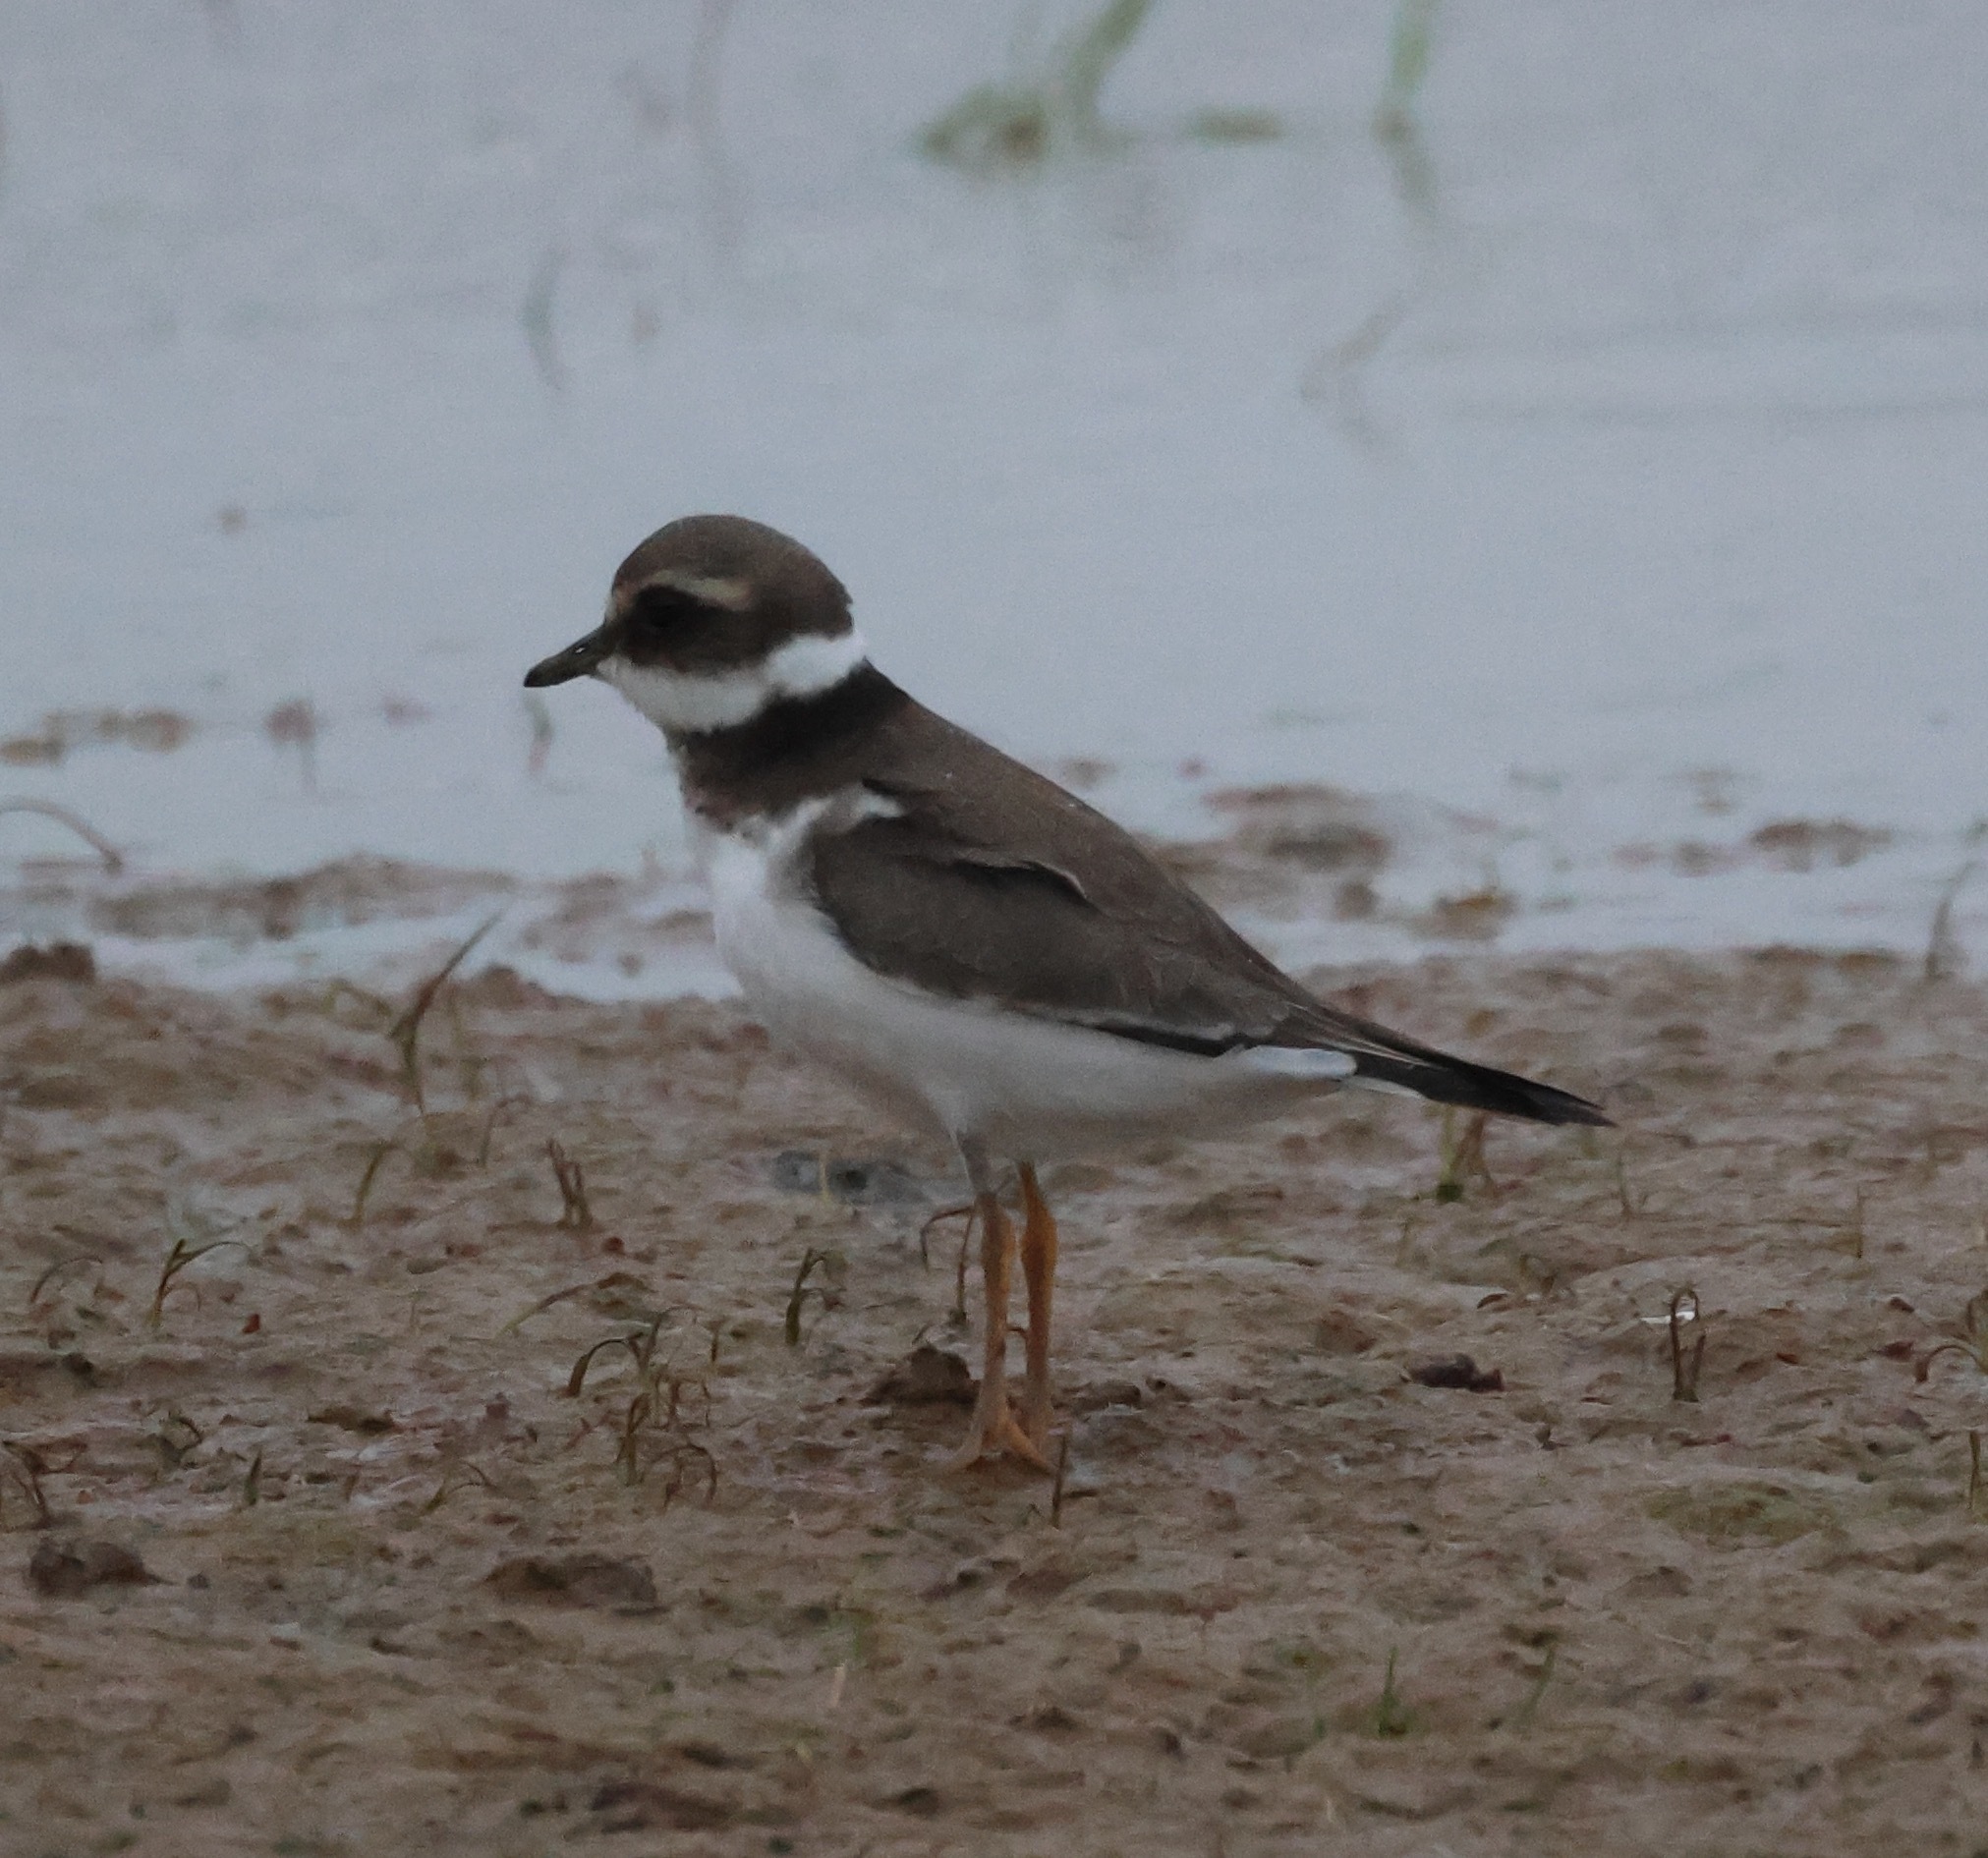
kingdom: Animalia
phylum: Chordata
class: Aves
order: Charadriiformes
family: Charadriidae
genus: Charadrius
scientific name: Charadrius hiaticula
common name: Common ringed plover
